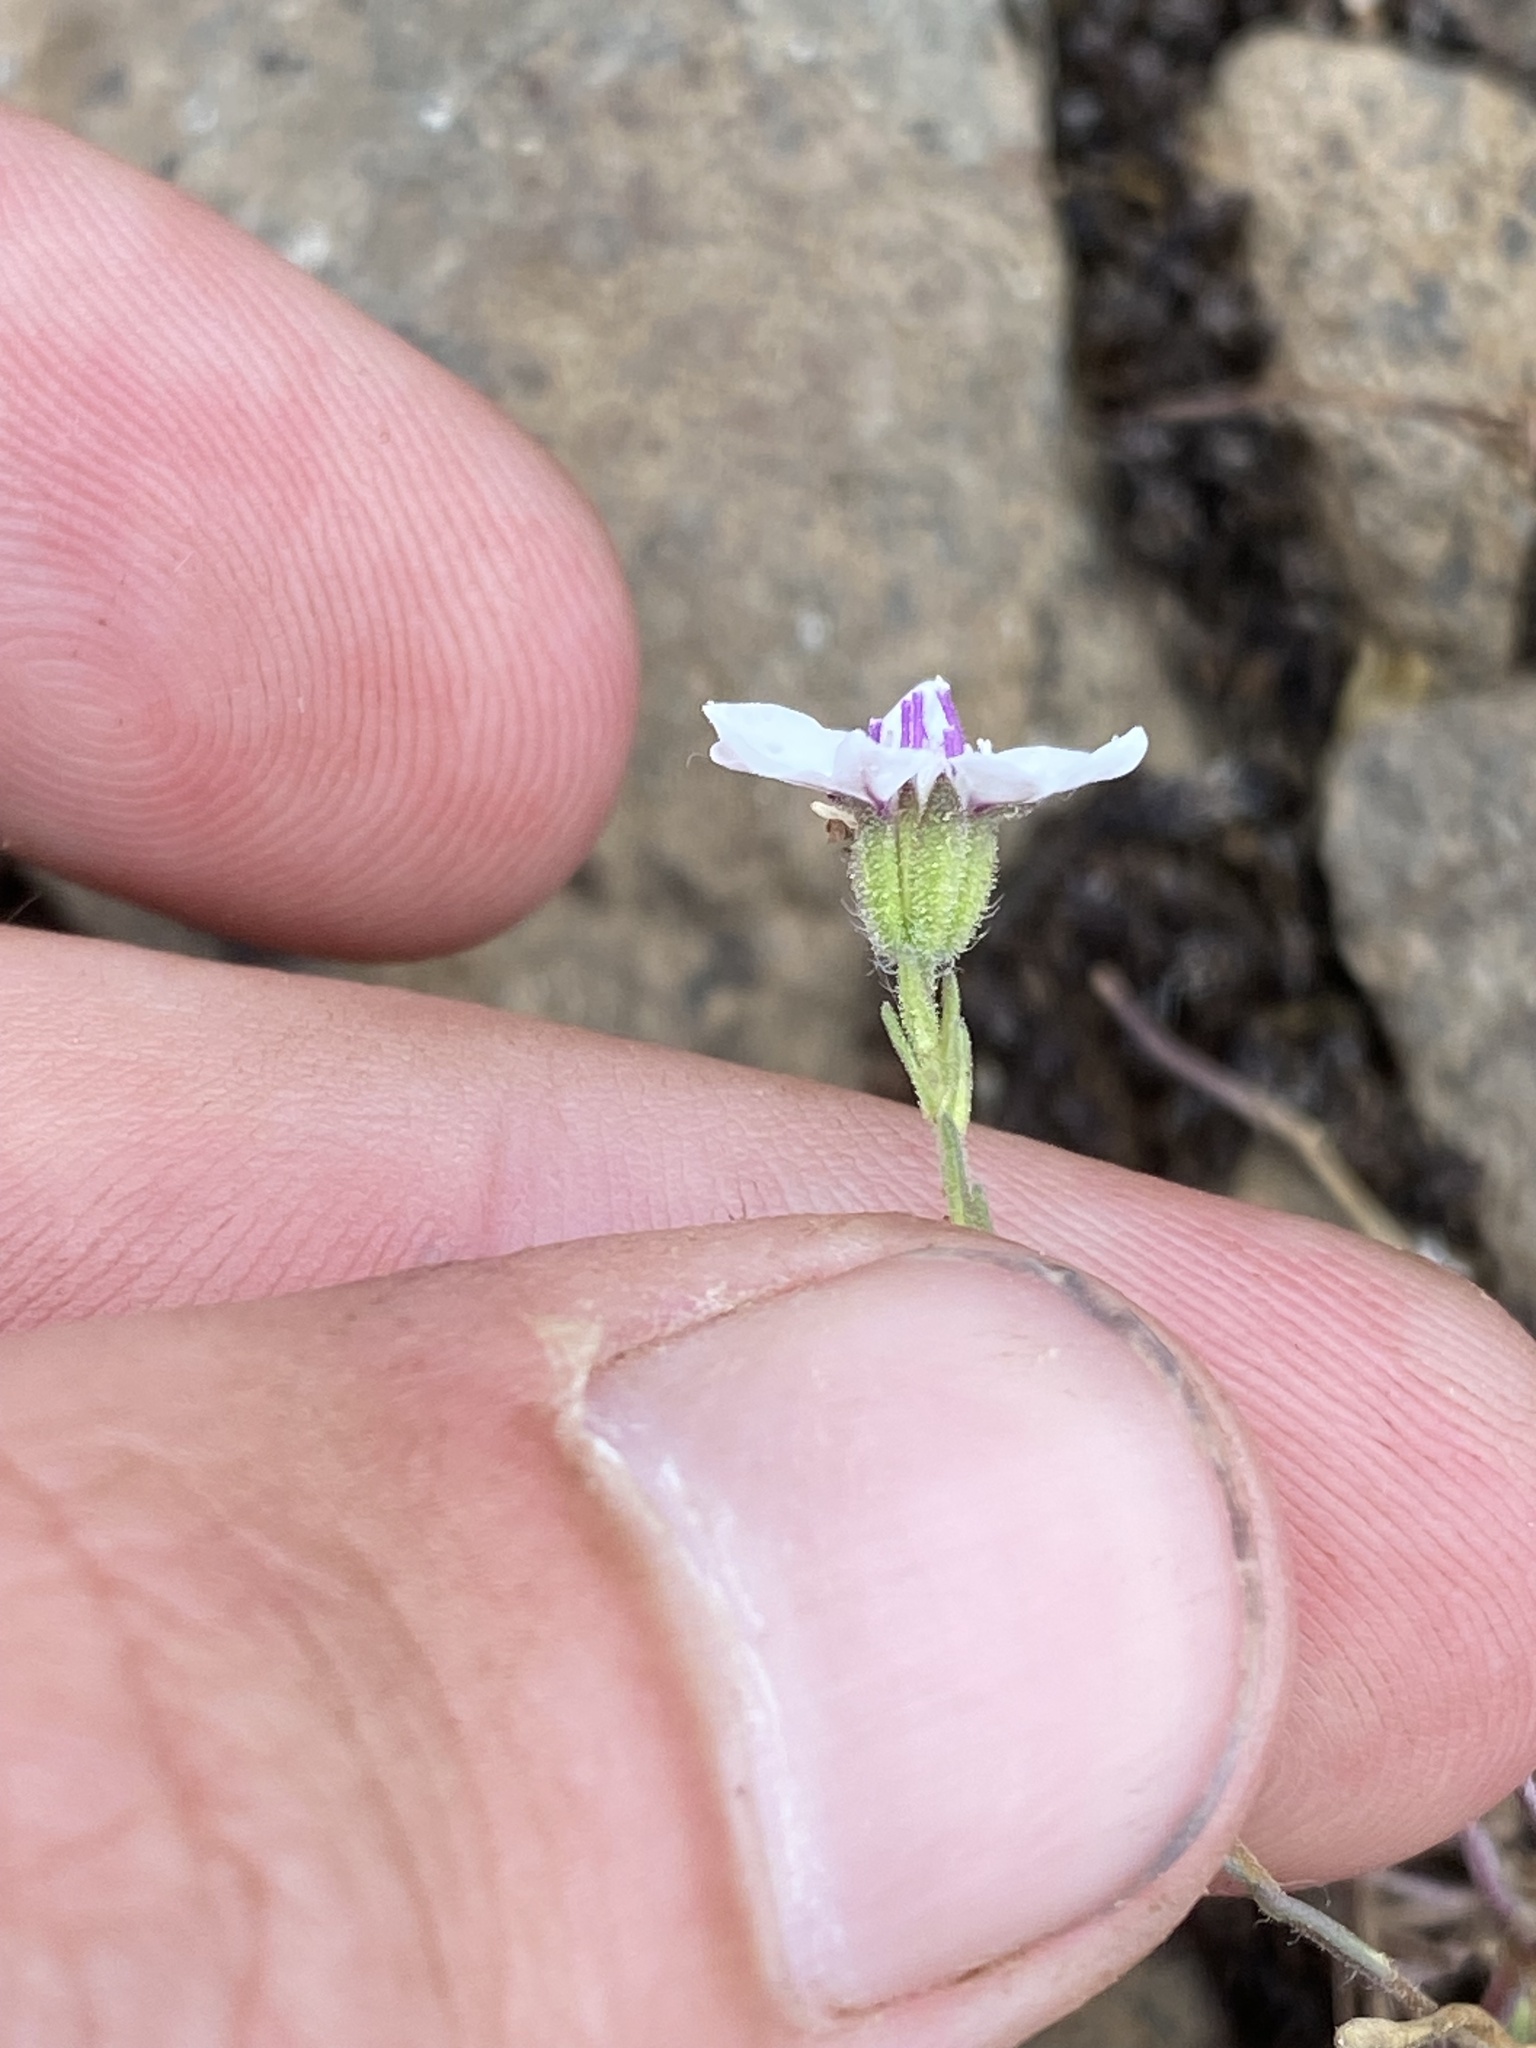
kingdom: Plantae
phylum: Tracheophyta
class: Magnoliopsida
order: Asterales
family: Asteraceae
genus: Blepharipappus
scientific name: Blepharipappus scaber
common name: Rough blepharipappus
